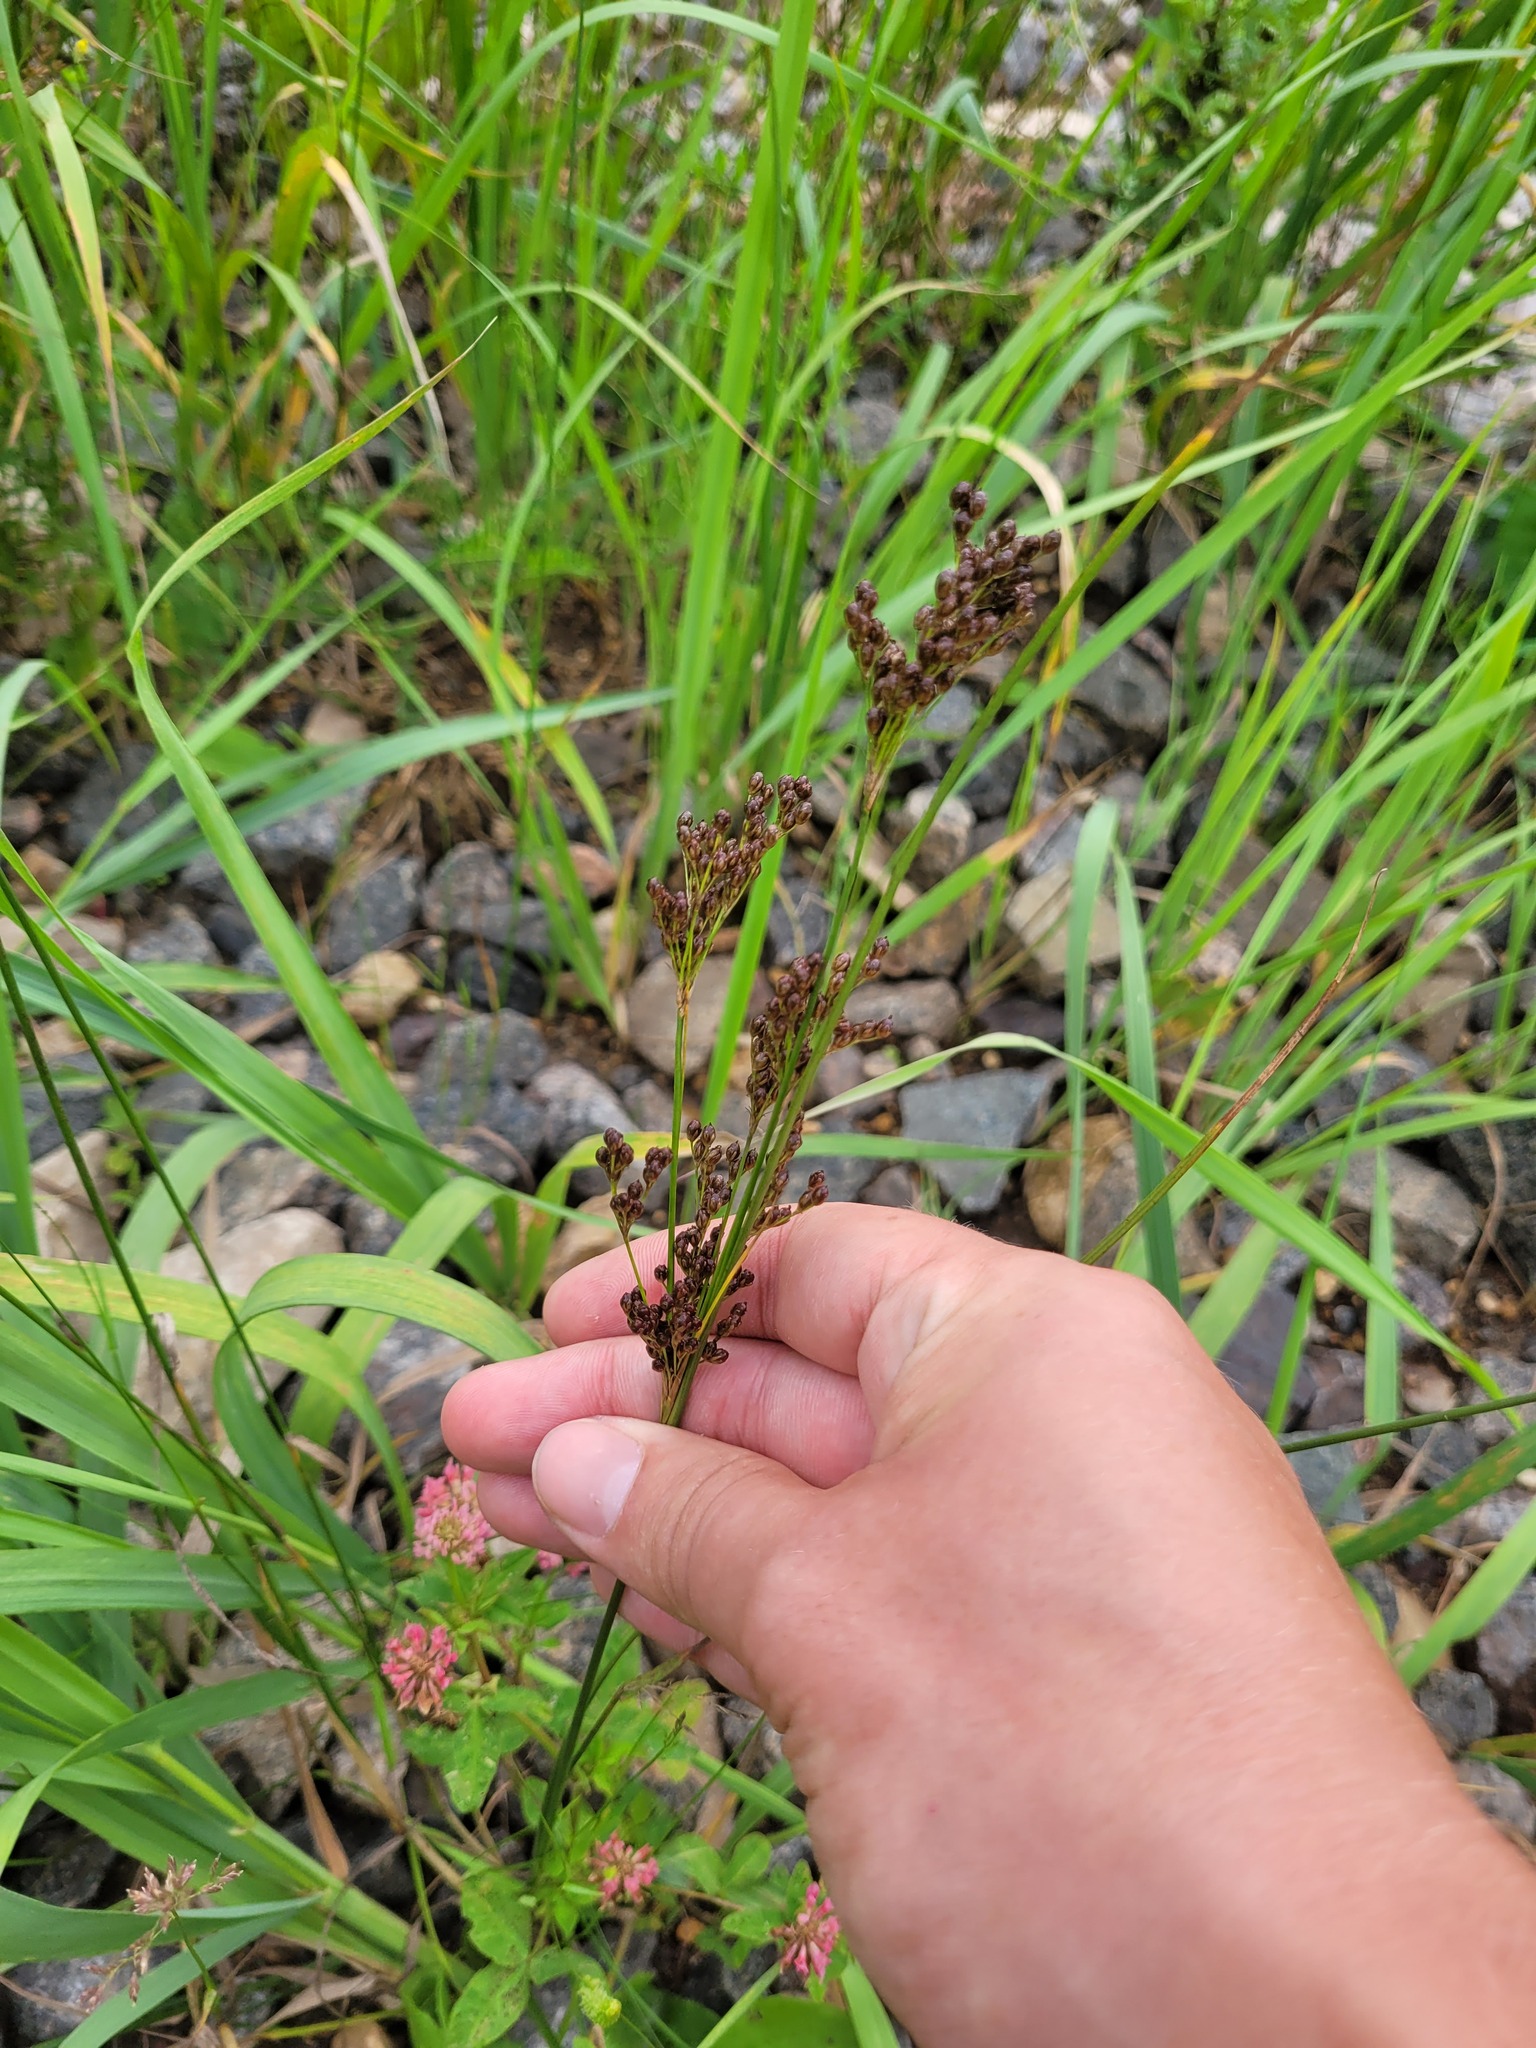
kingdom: Plantae
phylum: Tracheophyta
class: Liliopsida
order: Poales
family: Juncaceae
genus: Juncus
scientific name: Juncus compressus
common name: Round-fruited rush
